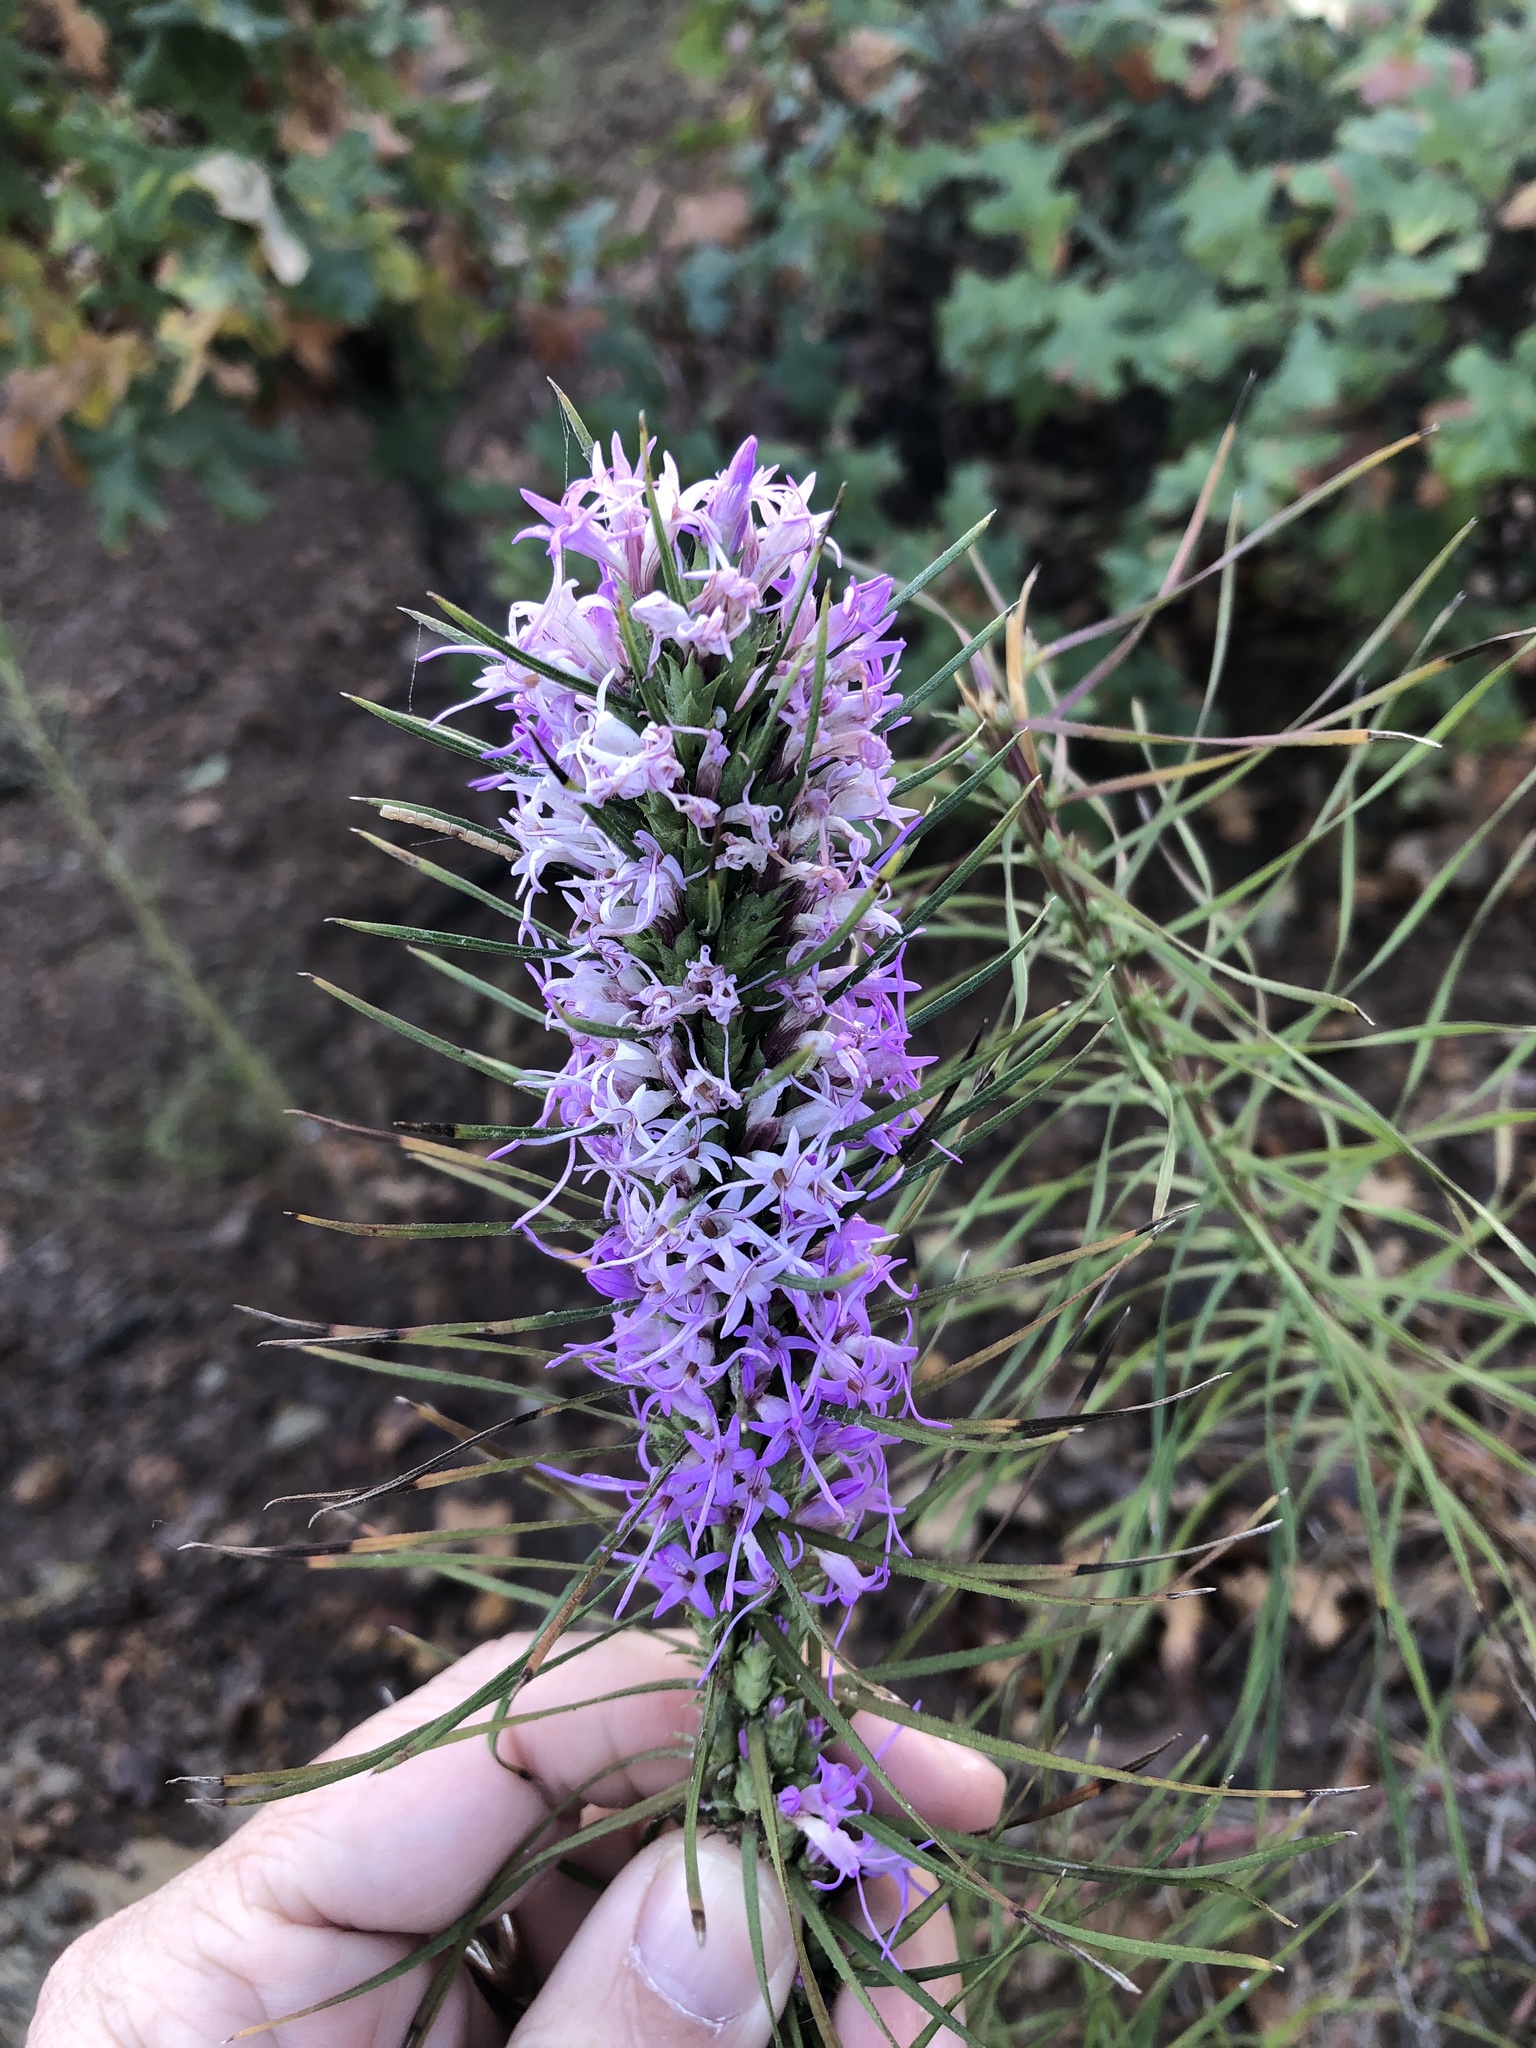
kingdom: Plantae
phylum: Tracheophyta
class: Magnoliopsida
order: Asterales
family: Asteraceae
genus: Liatris
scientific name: Liatris punctata
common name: Dotted gayfeather
